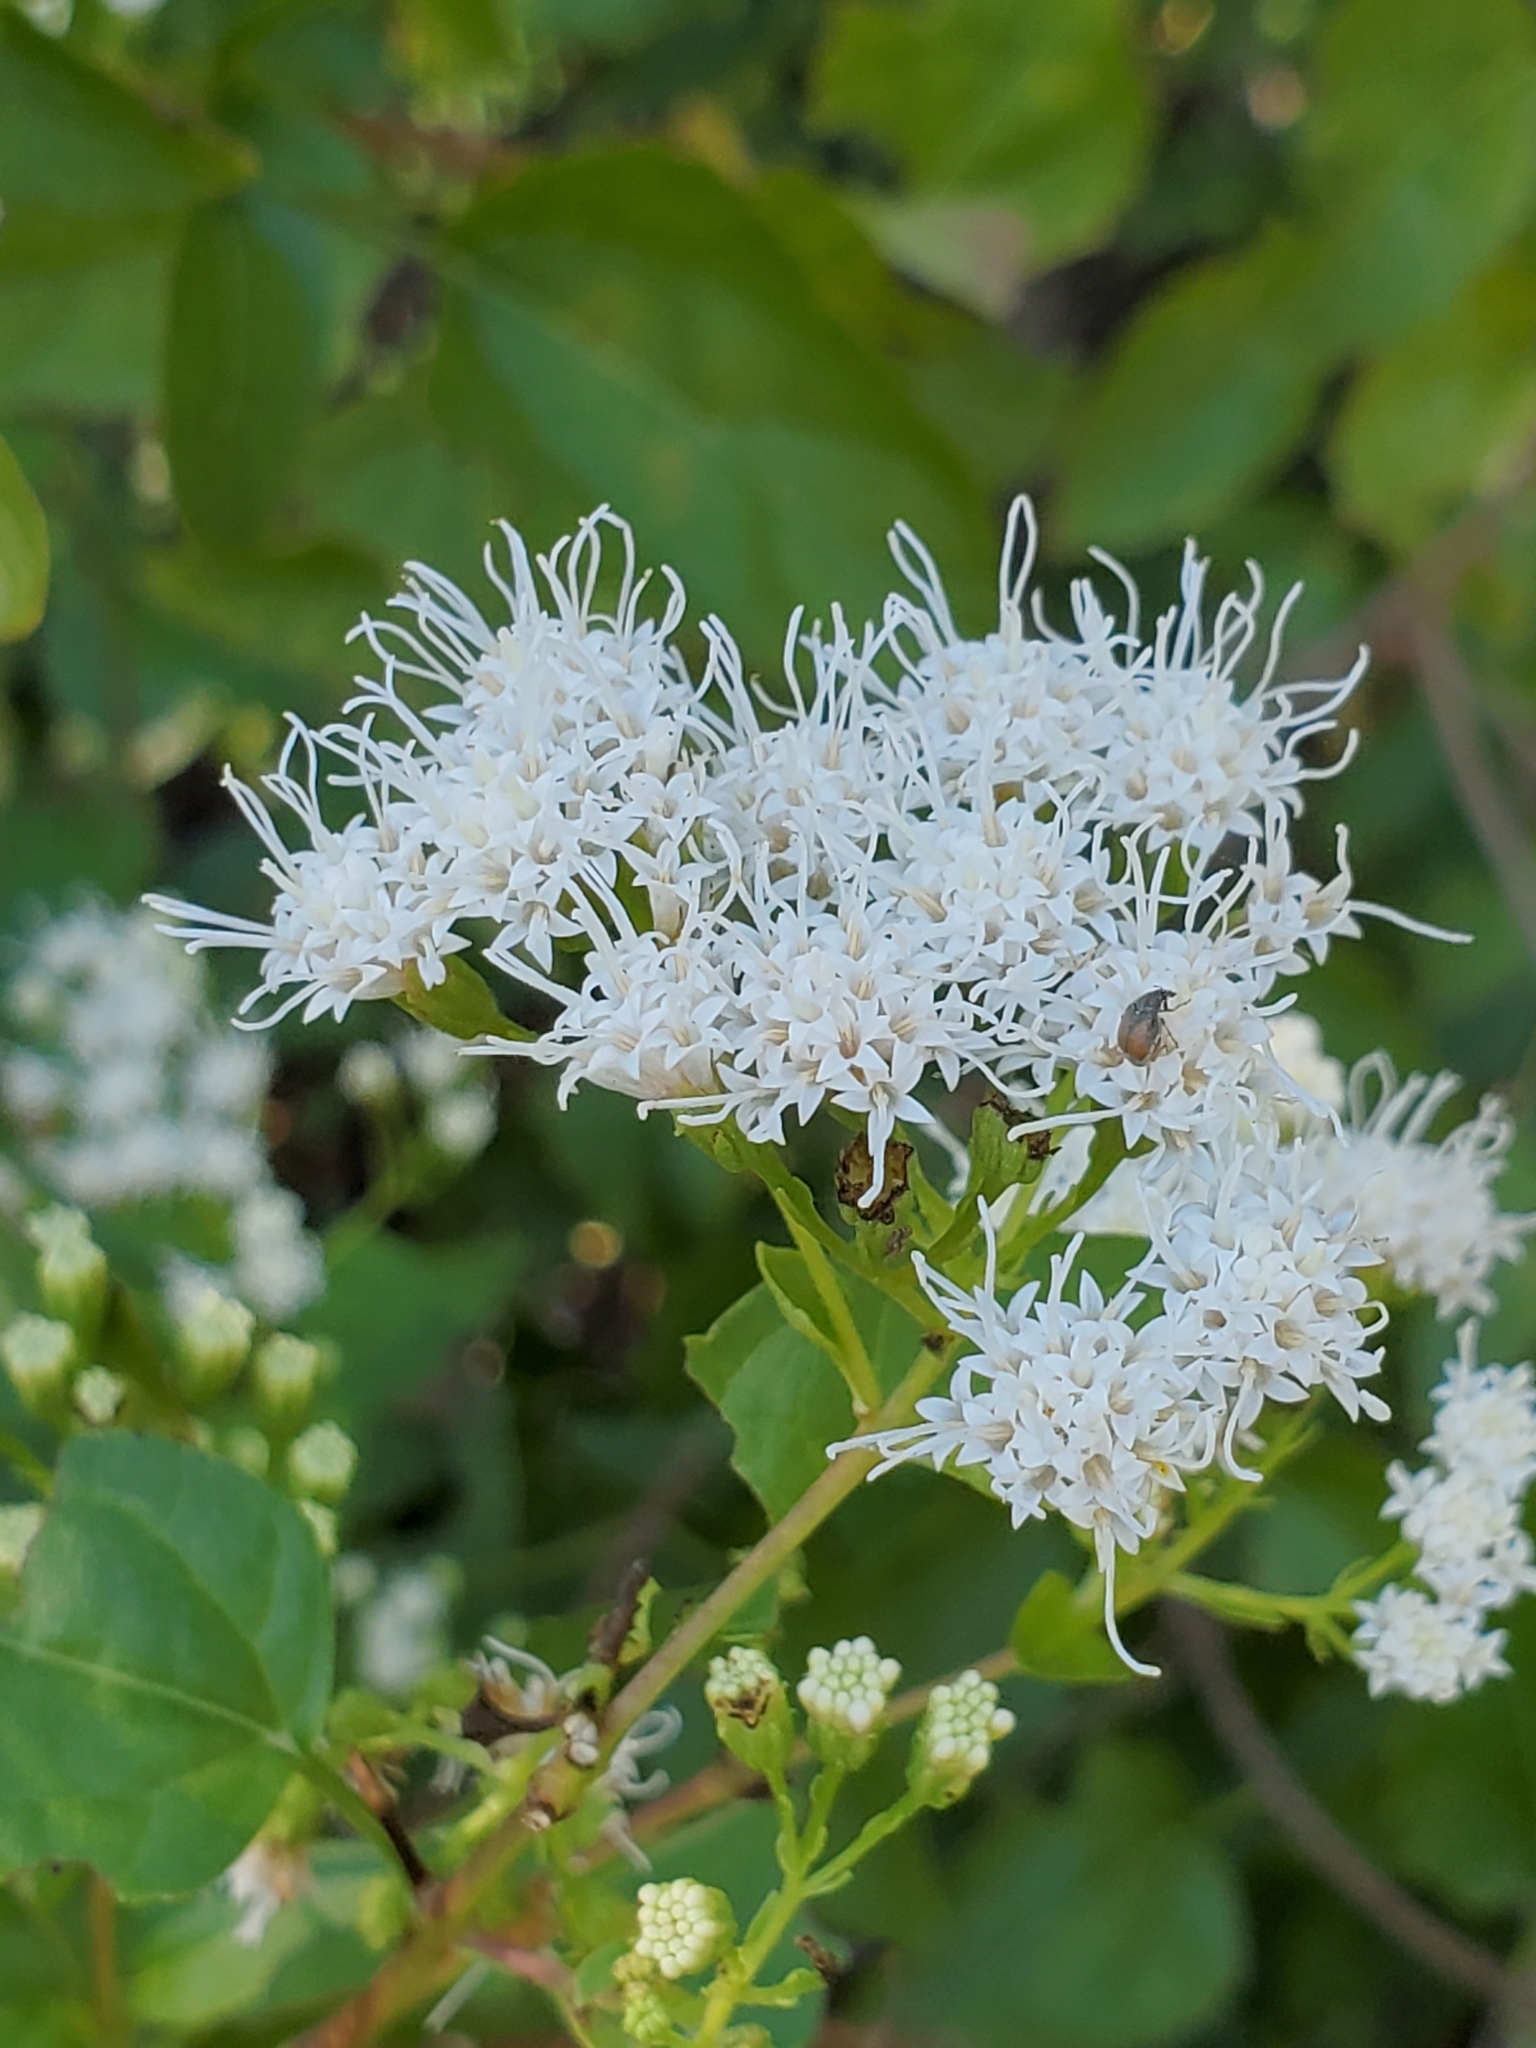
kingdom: Plantae
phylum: Tracheophyta
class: Magnoliopsida
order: Asterales
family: Asteraceae
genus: Ageratina
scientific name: Ageratina havanensis
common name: Havana snakeroot
